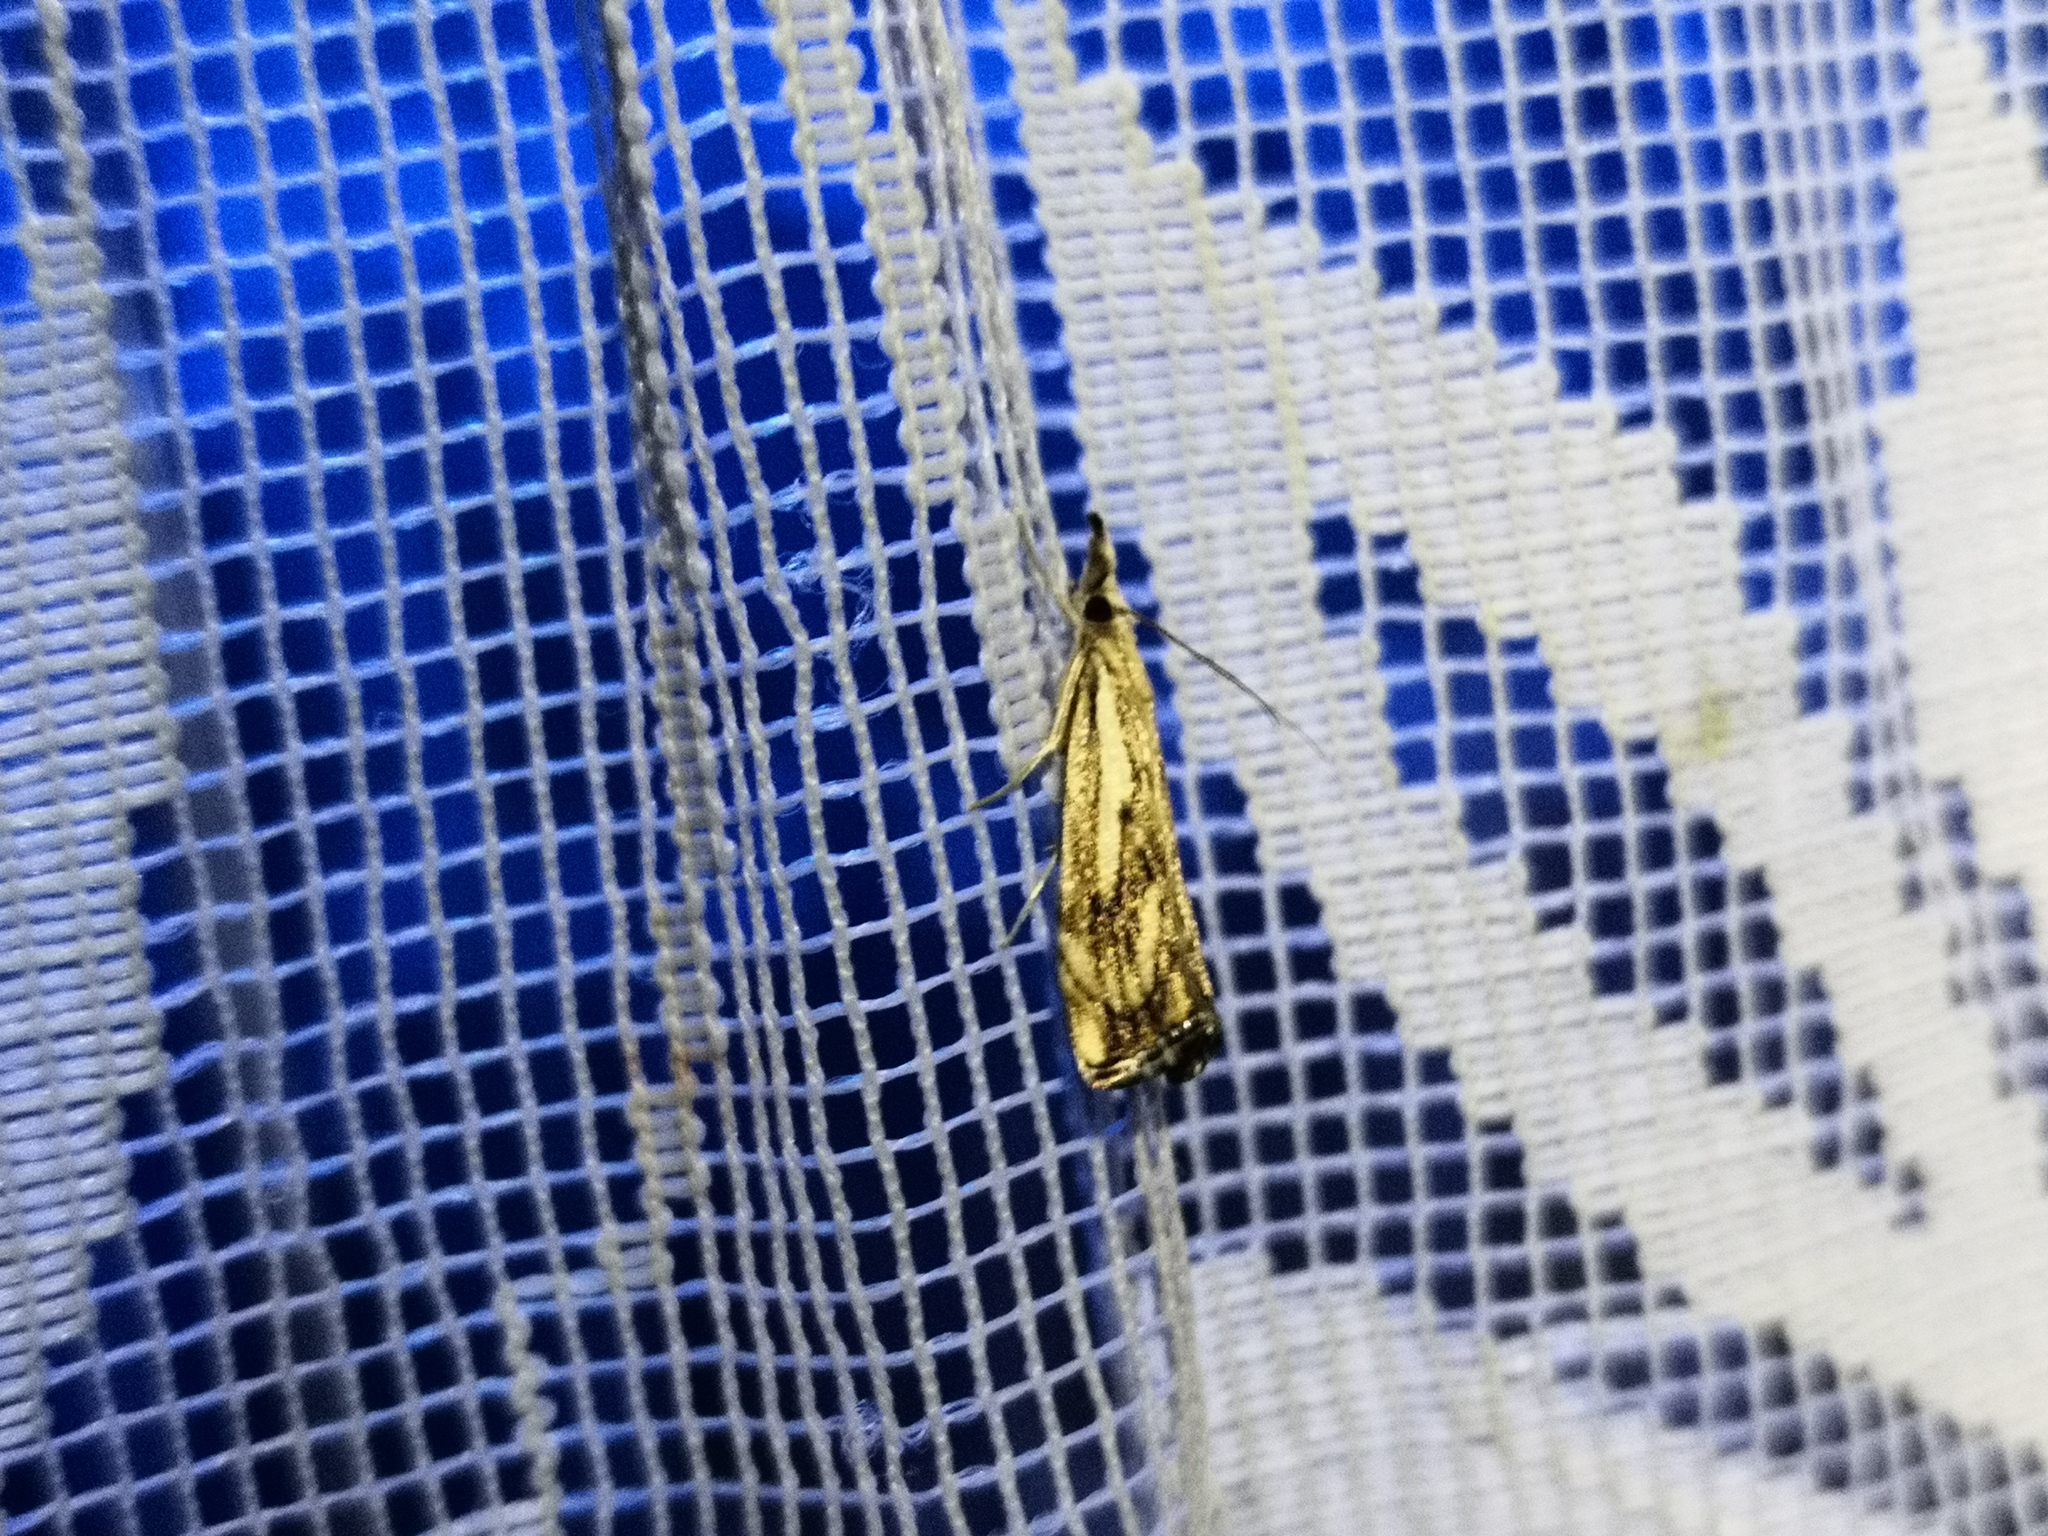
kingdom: Animalia
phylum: Arthropoda
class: Insecta
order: Lepidoptera
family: Crambidae
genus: Catoptria
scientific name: Catoptria falsella
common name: Chequered grass-veneer
